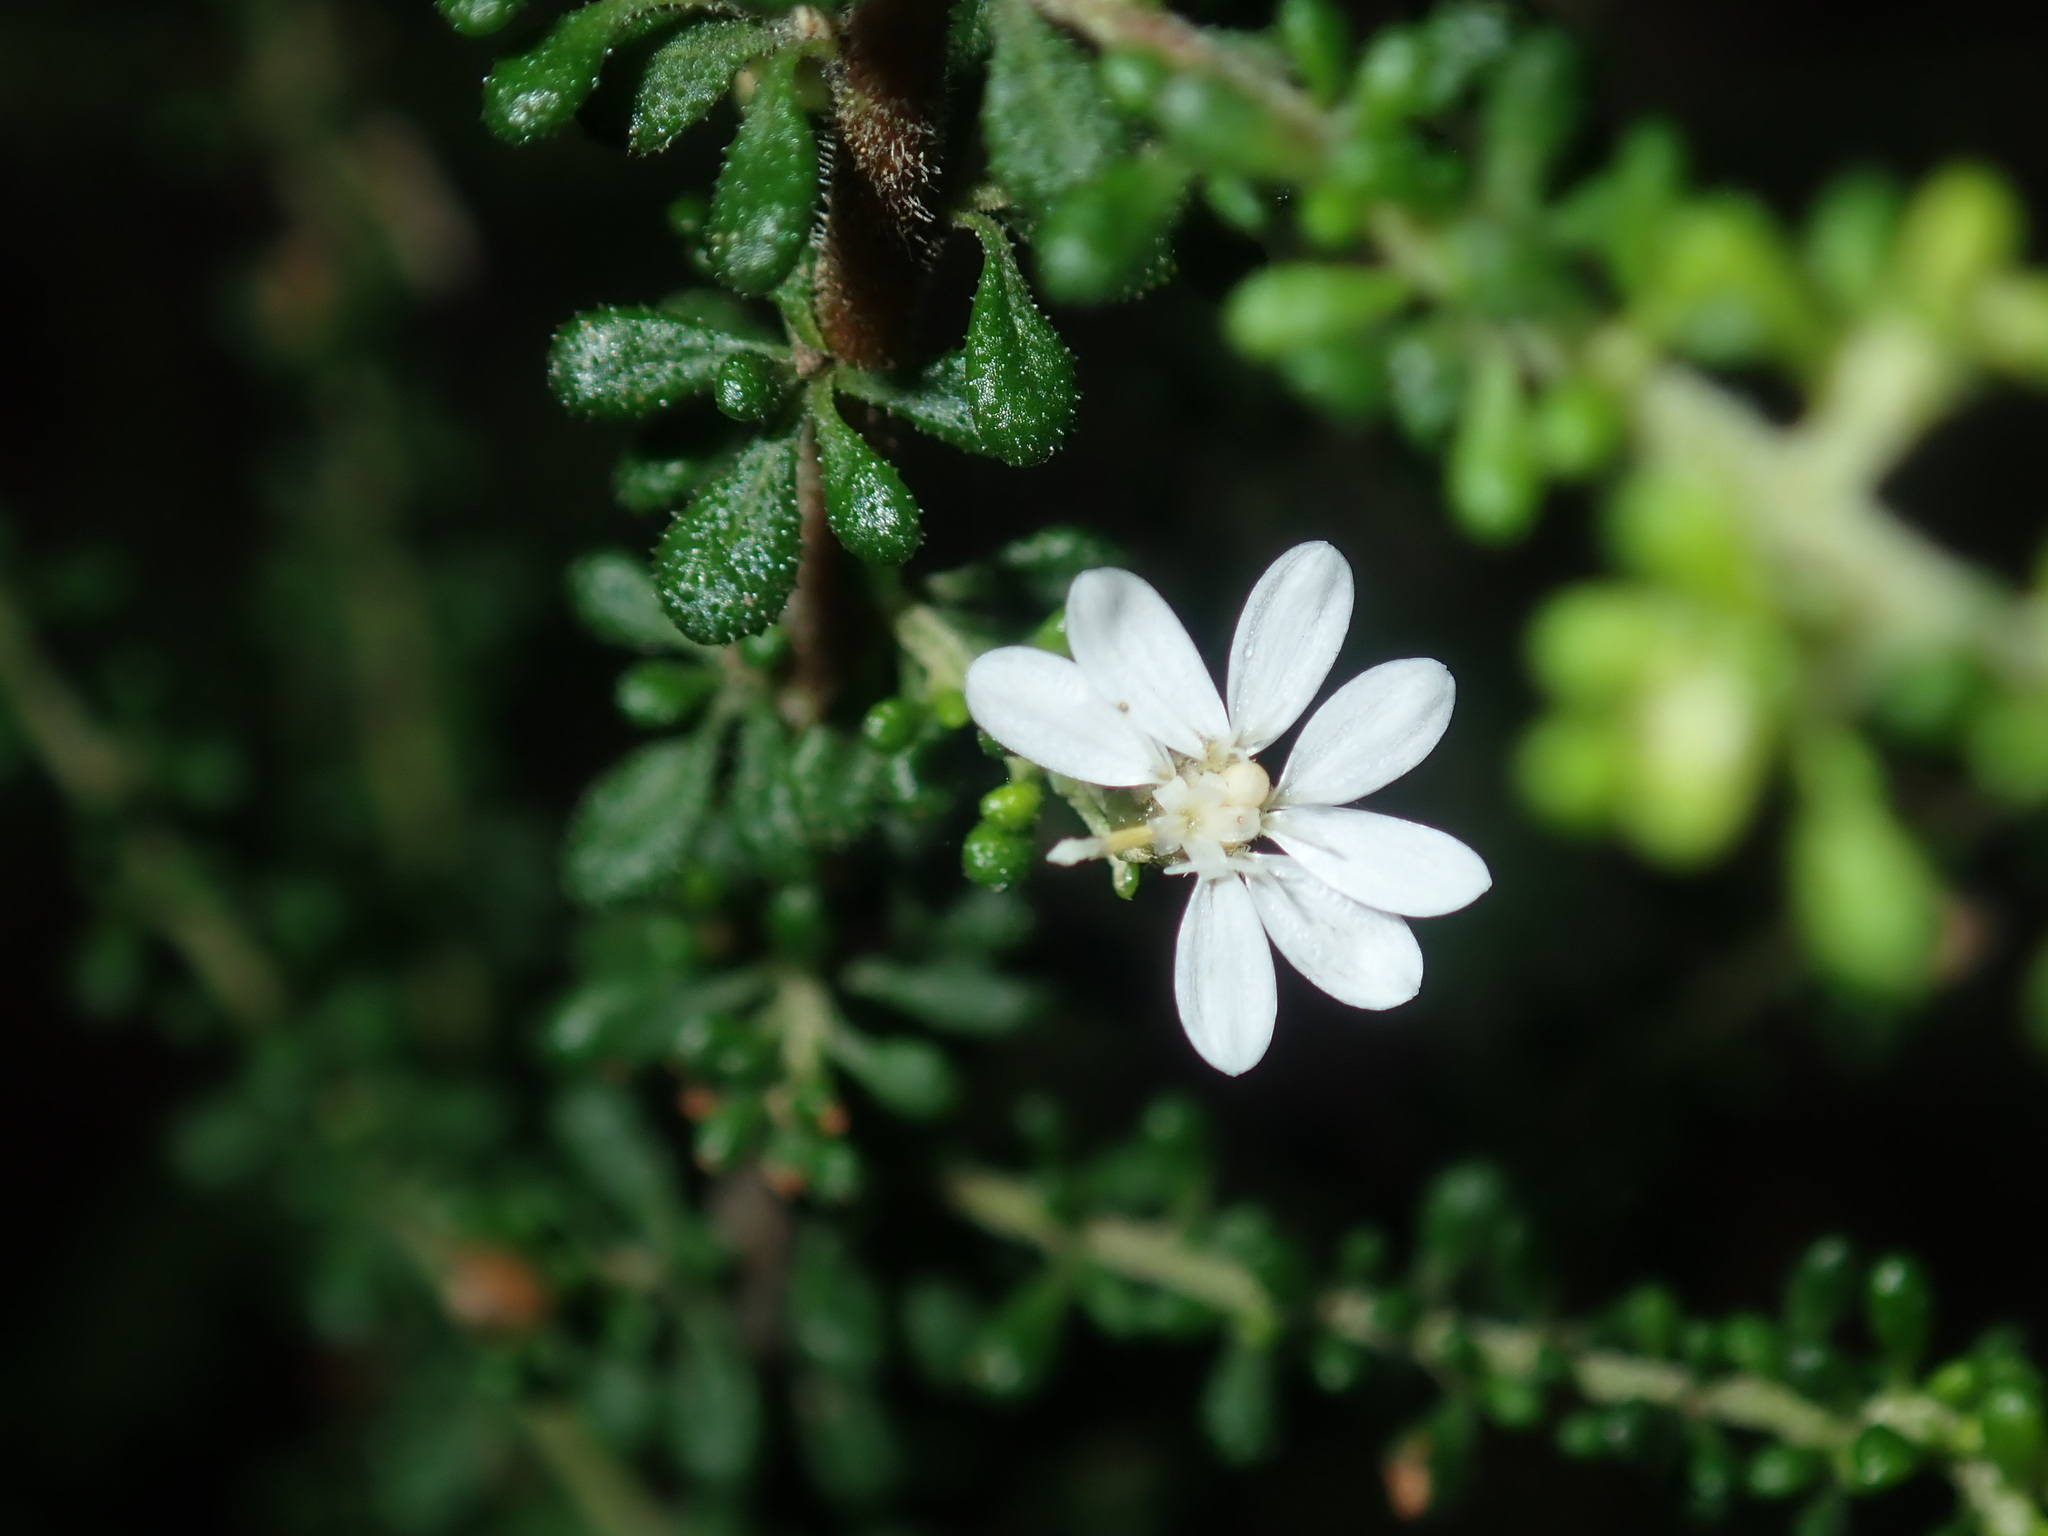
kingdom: Plantae
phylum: Tracheophyta
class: Magnoliopsida
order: Asterales
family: Asteraceae
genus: Olearia
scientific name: Olearia microphylla
